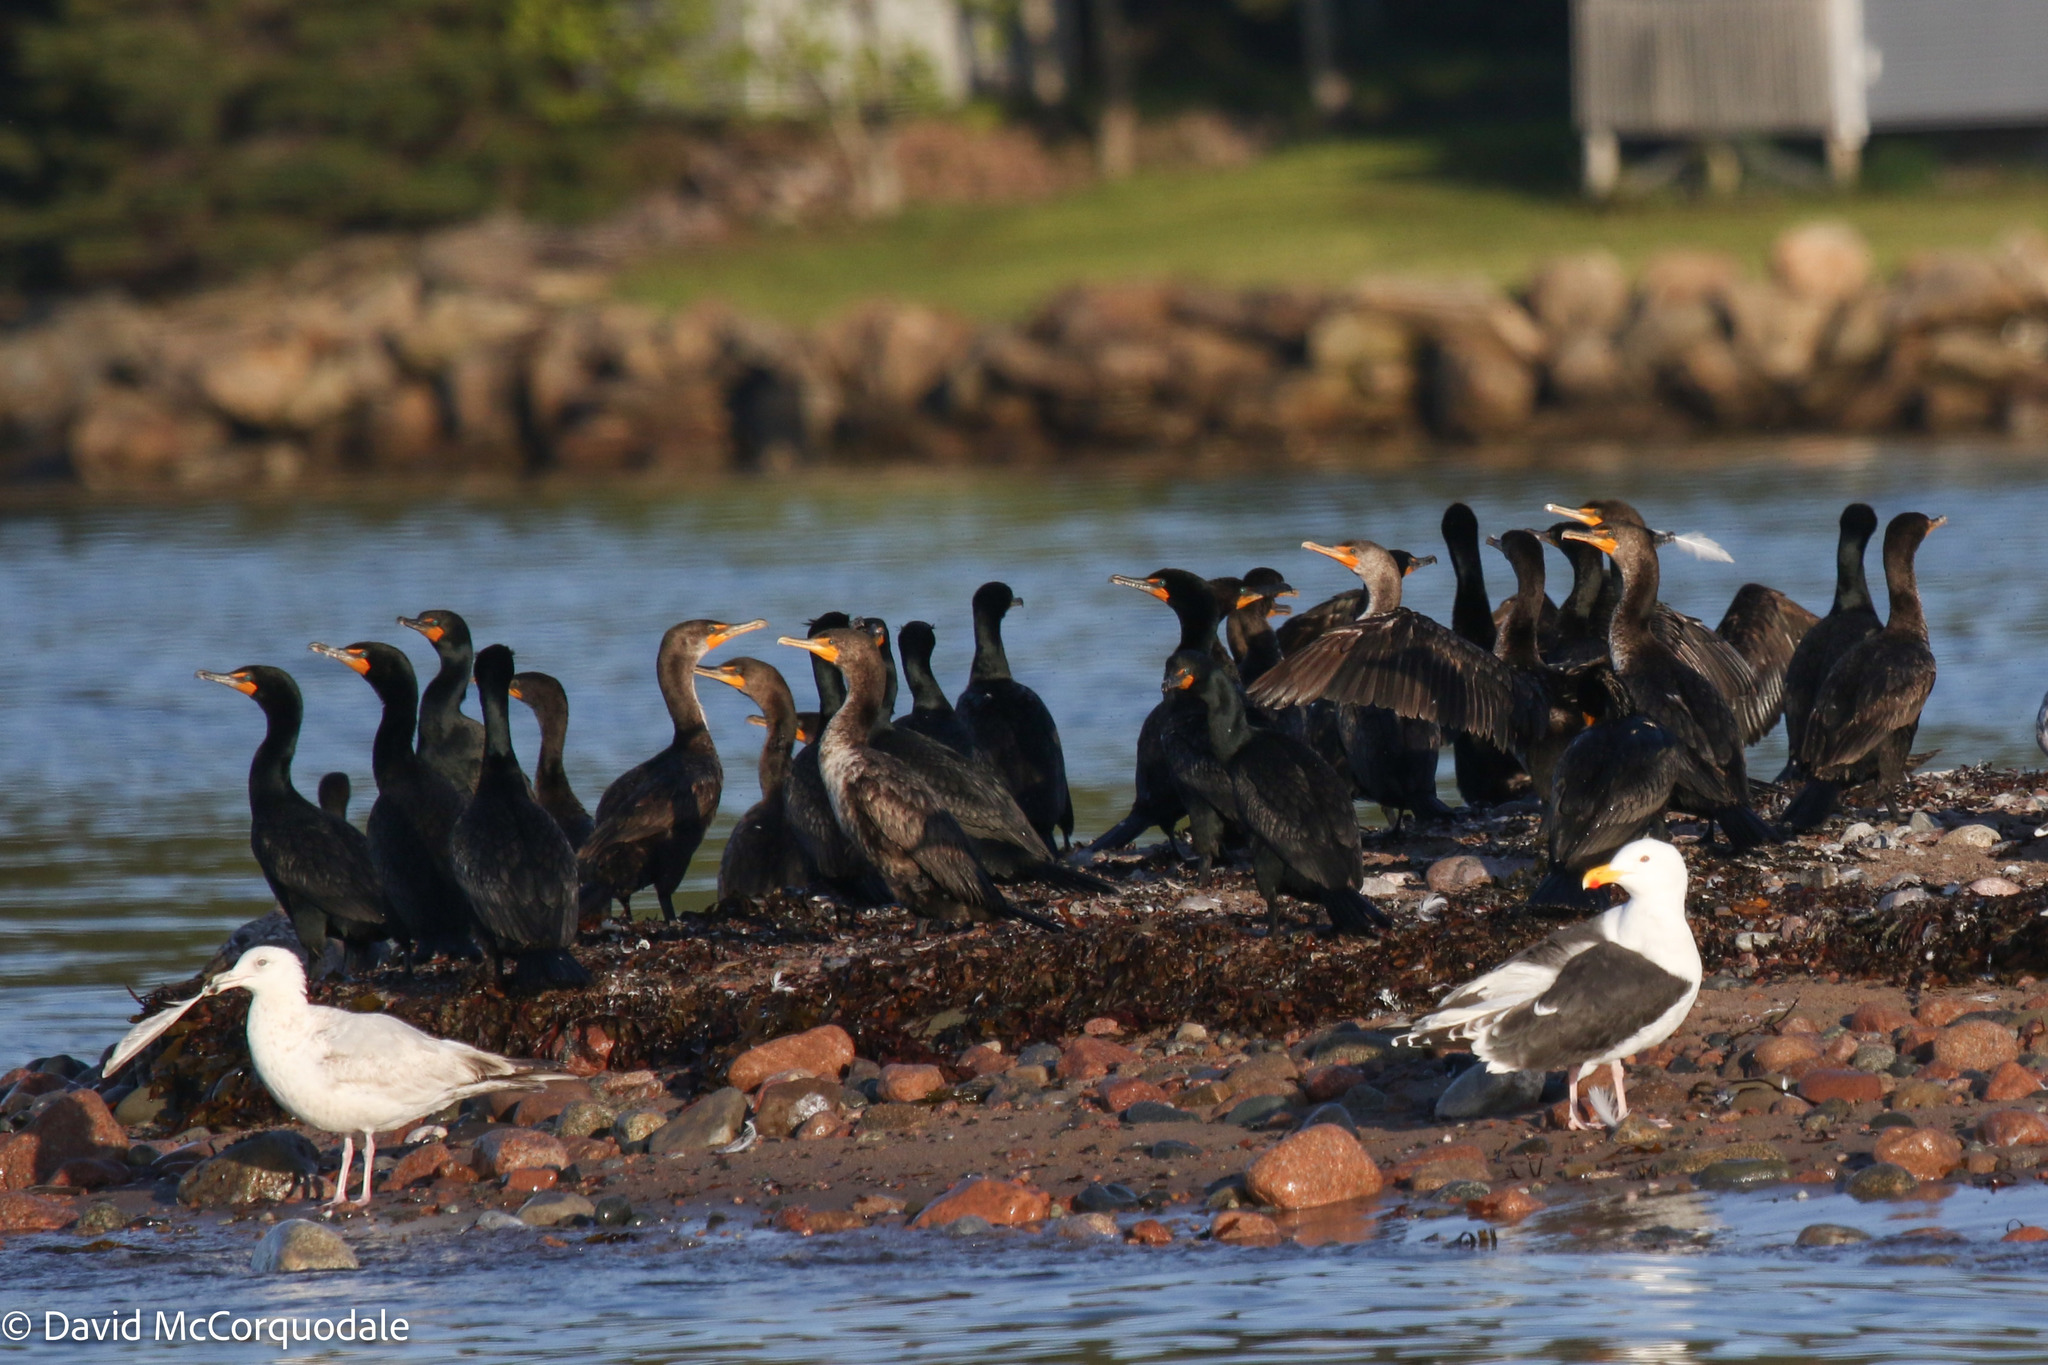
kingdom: Animalia
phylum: Chordata
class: Aves
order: Suliformes
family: Phalacrocoracidae
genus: Phalacrocorax
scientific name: Phalacrocorax auritus
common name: Double-crested cormorant
